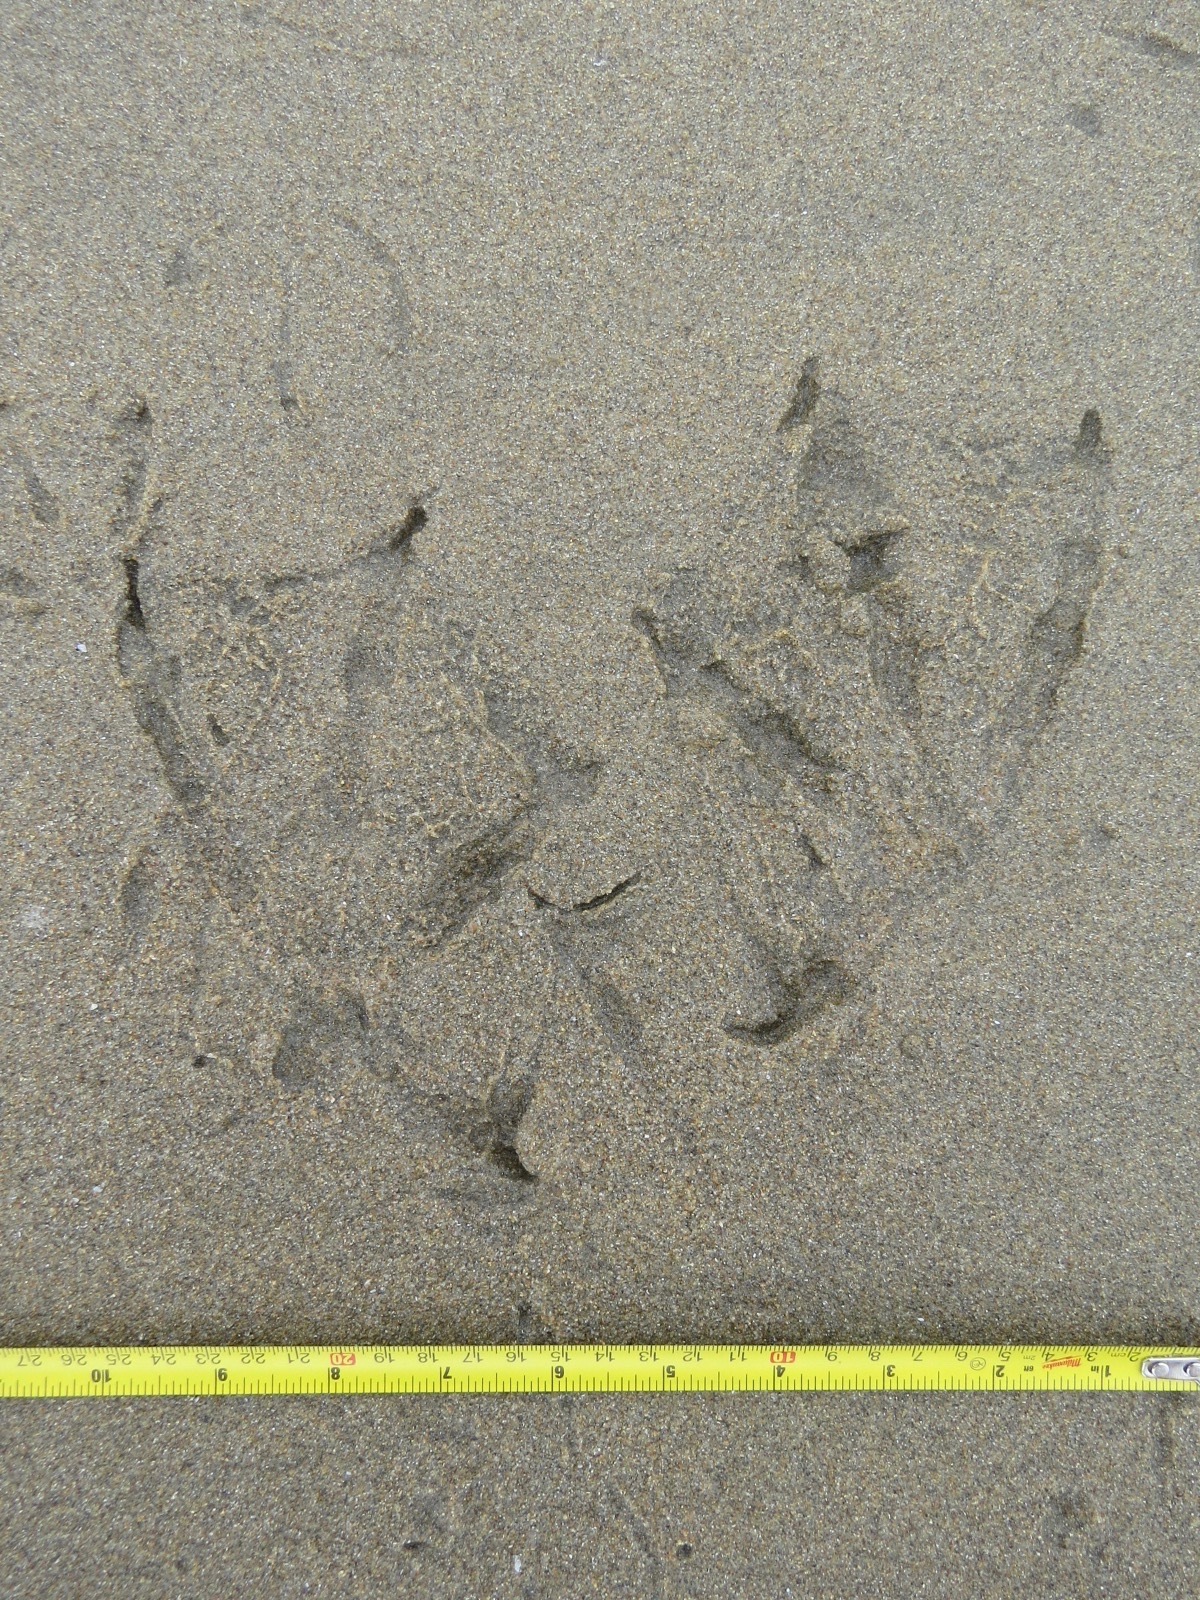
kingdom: Animalia
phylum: Chordata
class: Aves
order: Pelecaniformes
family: Pelecanidae
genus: Pelecanus
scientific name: Pelecanus occidentalis
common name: Brown pelican
